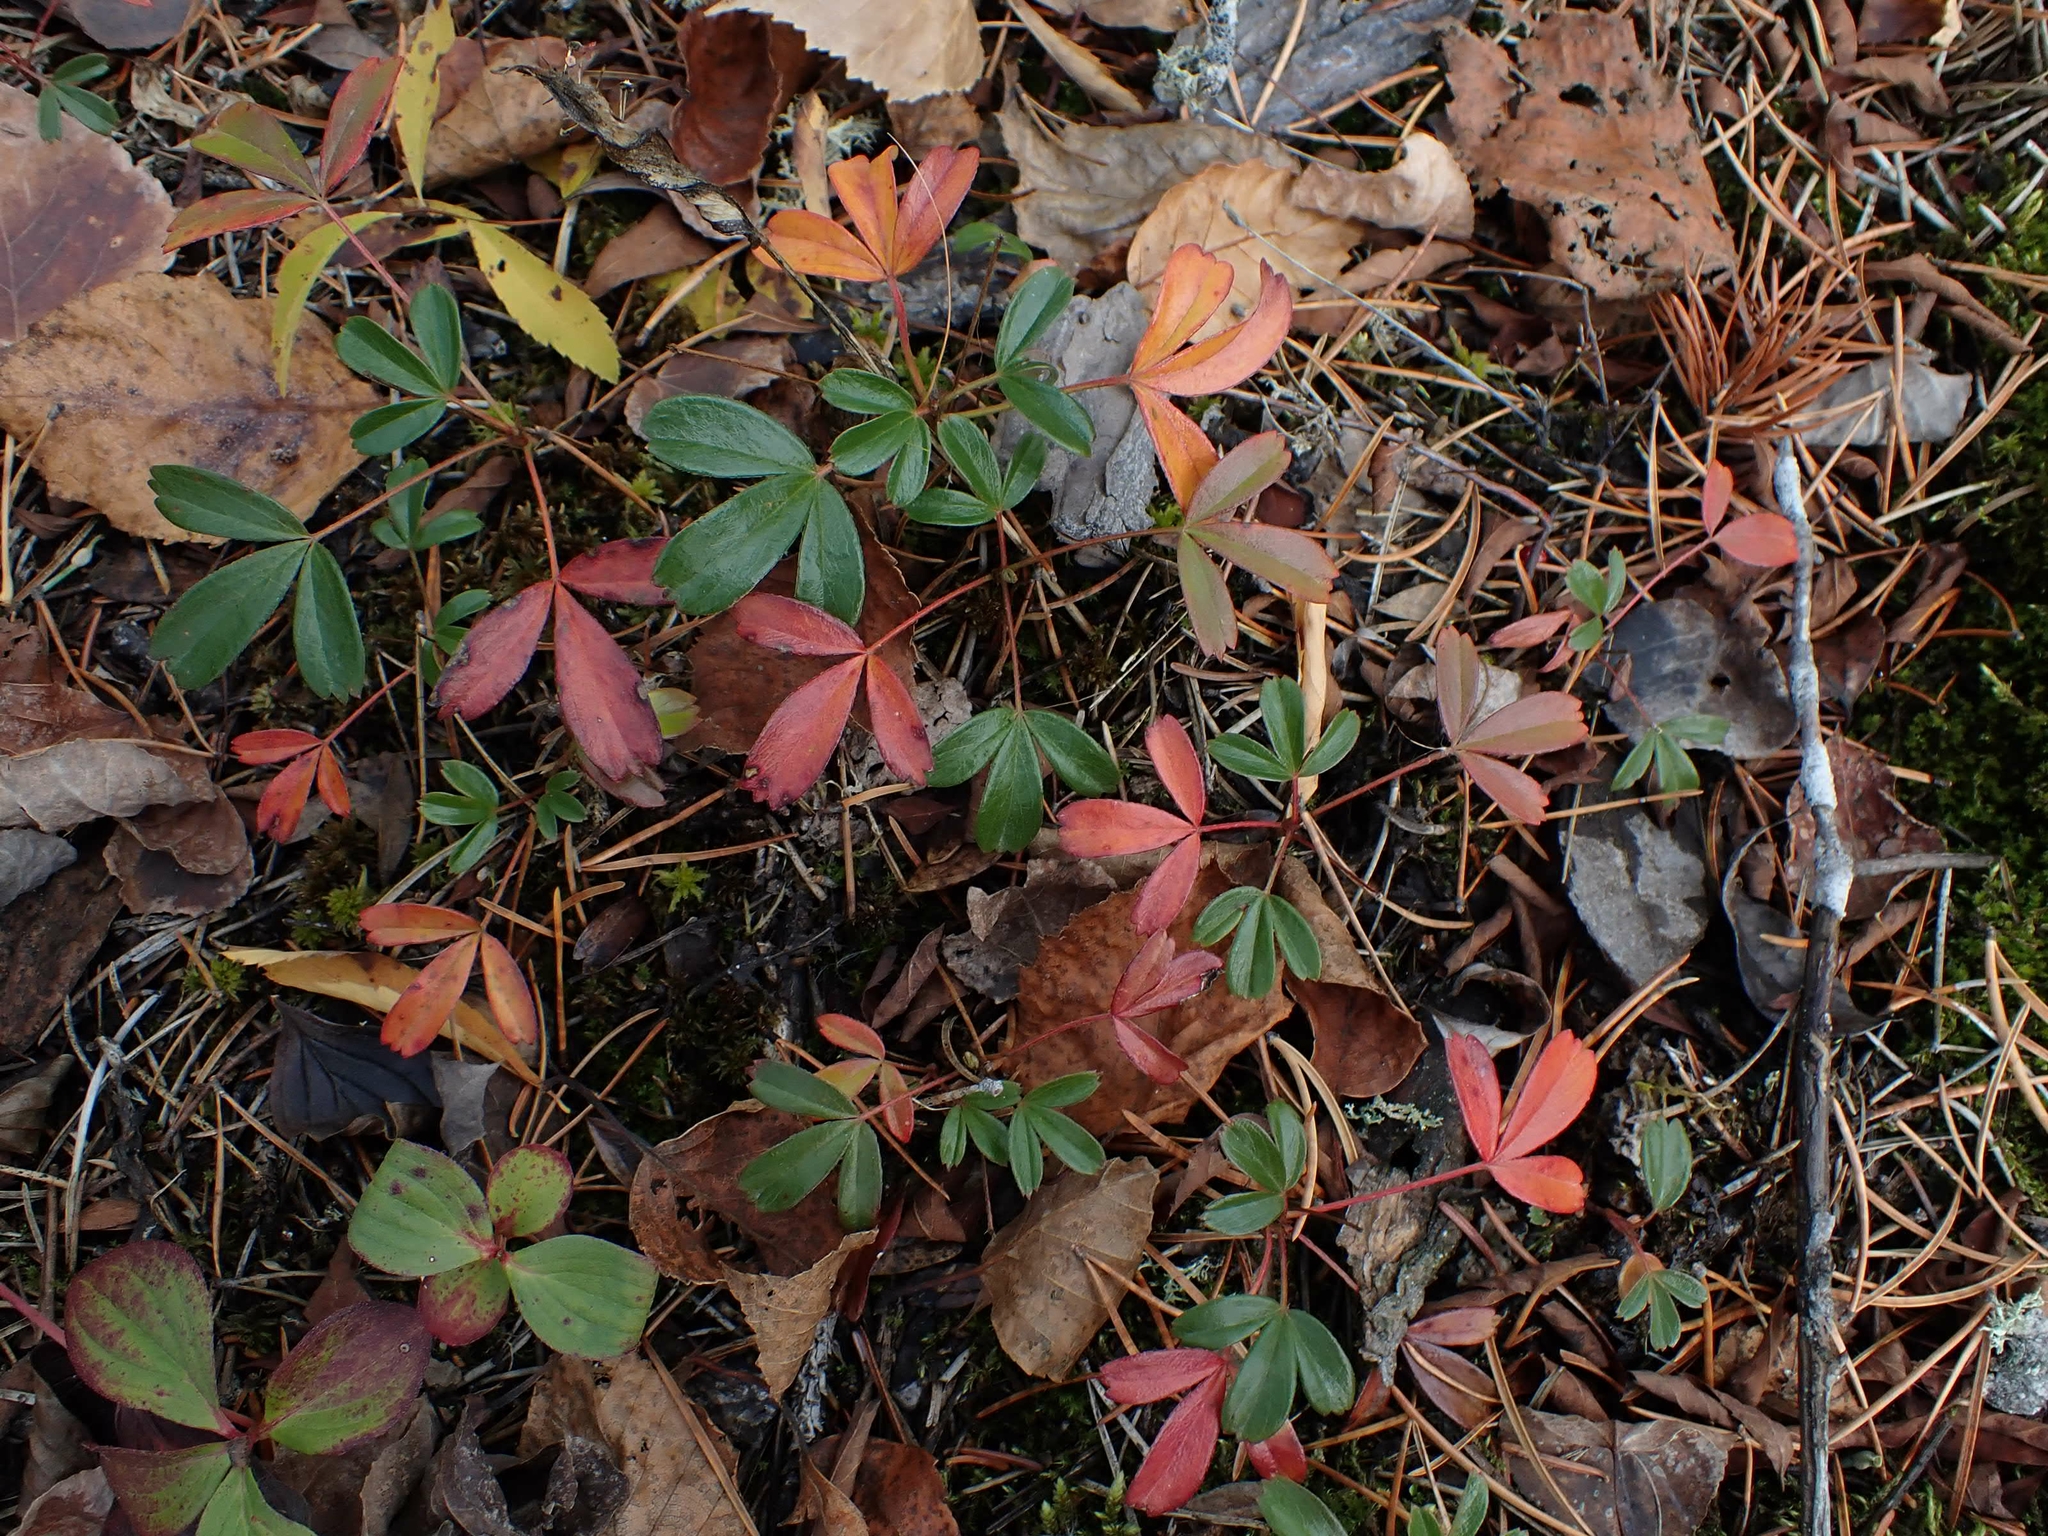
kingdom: Plantae
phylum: Tracheophyta
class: Magnoliopsida
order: Rosales
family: Rosaceae
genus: Sibbaldia
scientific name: Sibbaldia tridentata
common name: Three-toothed cinquefoil
